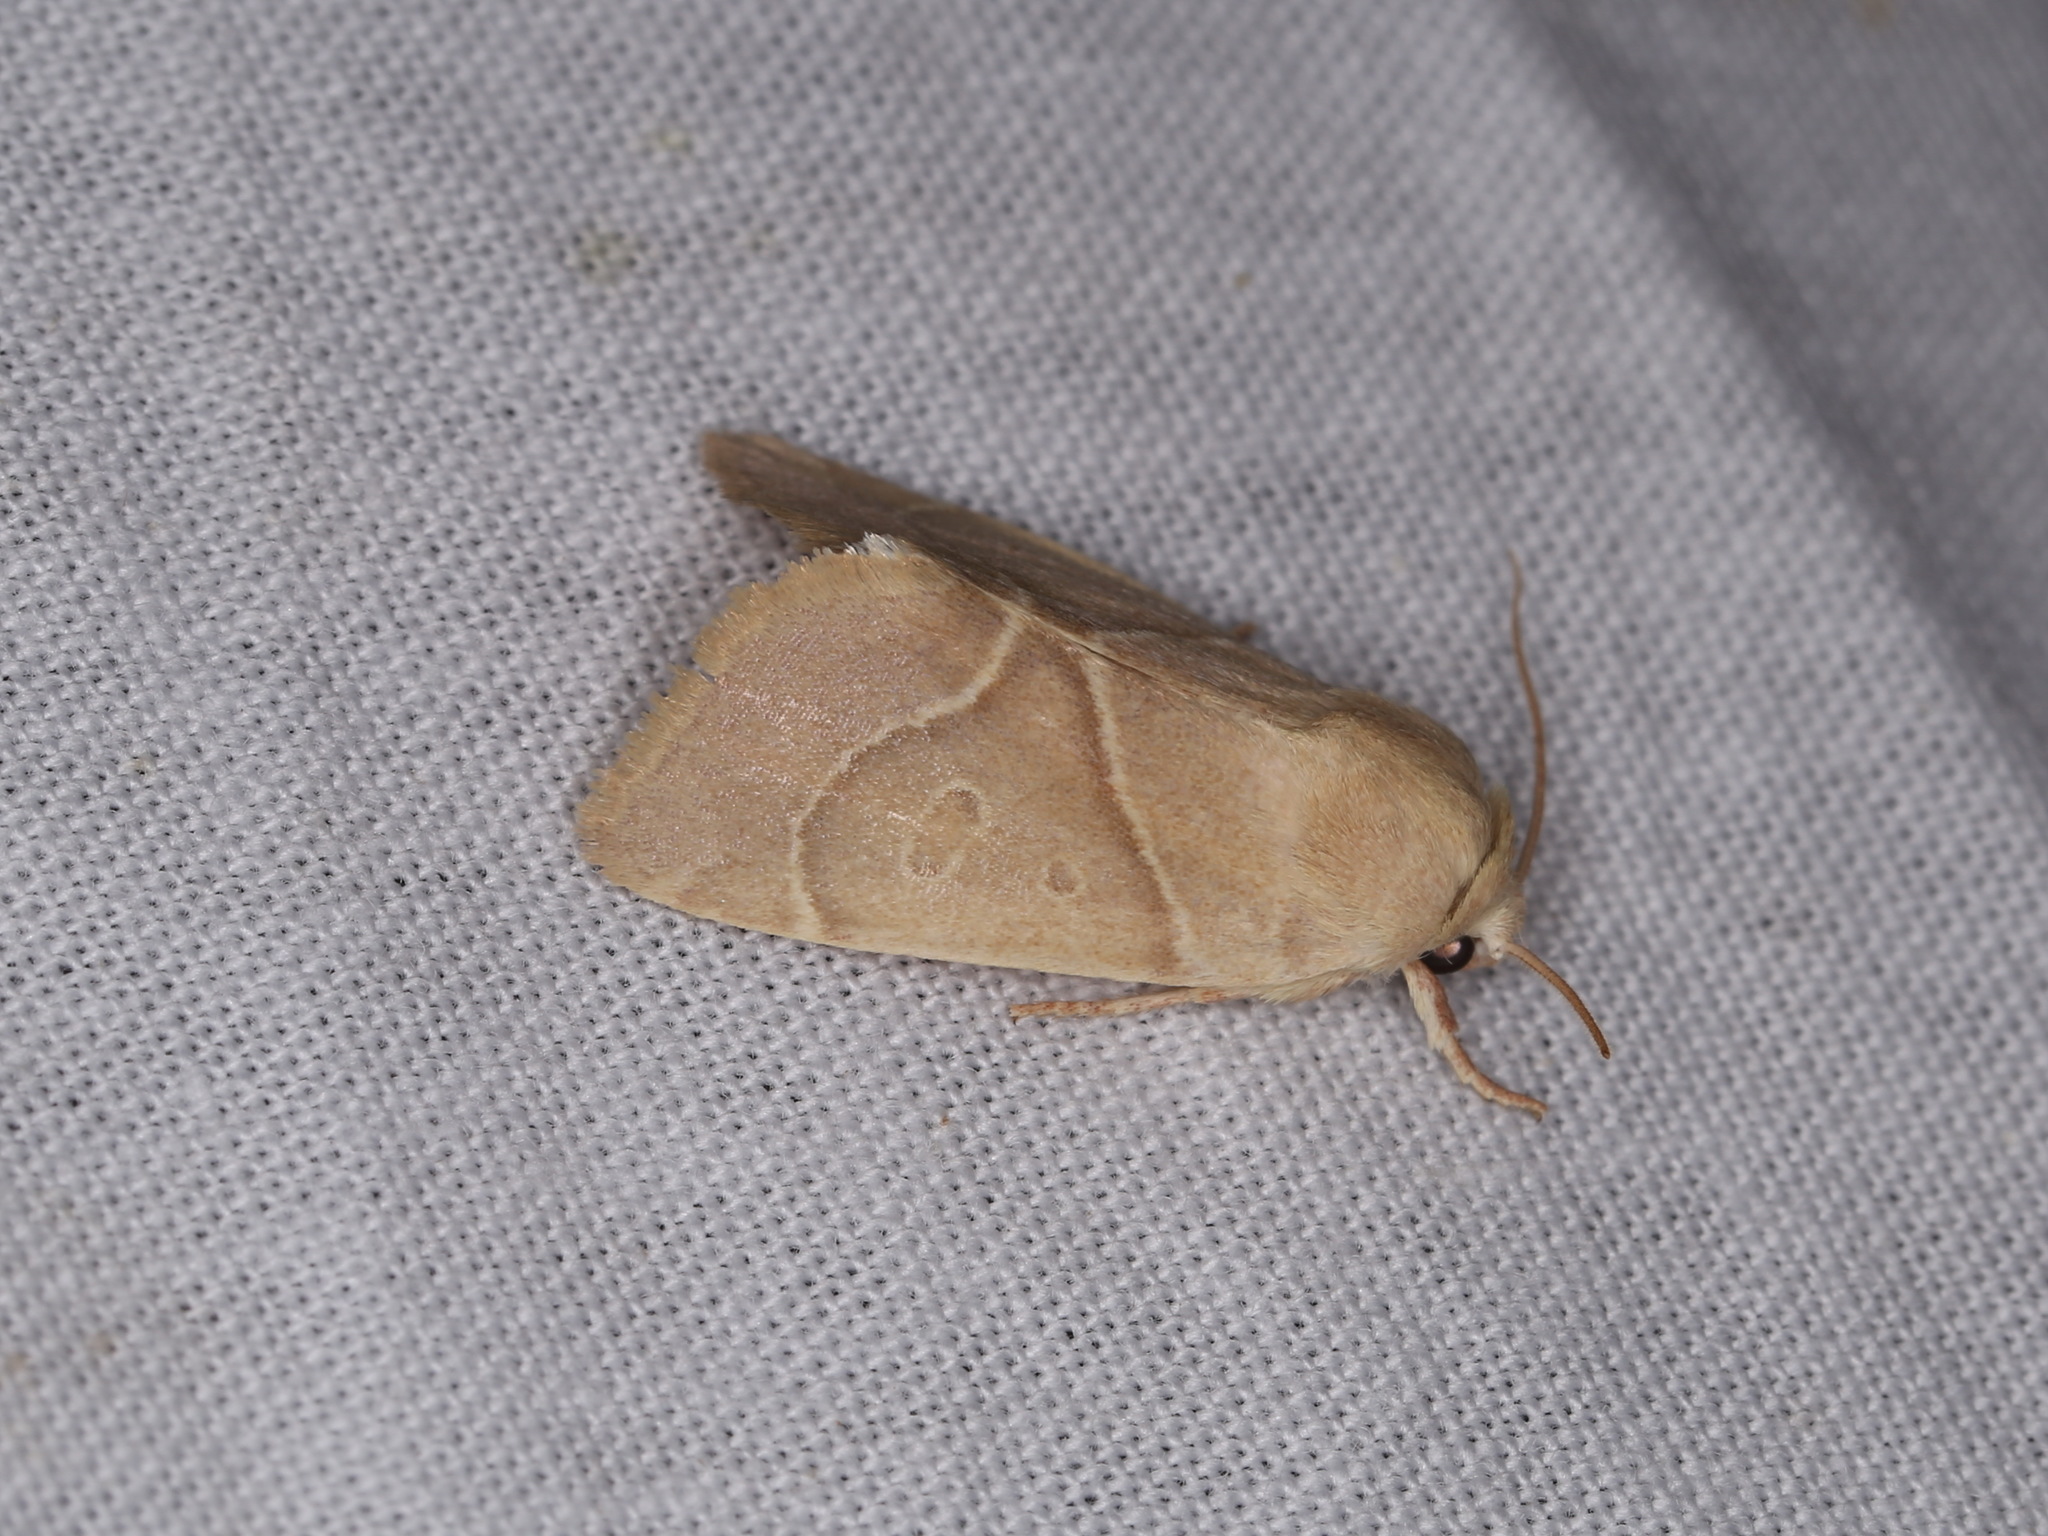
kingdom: Animalia
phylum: Arthropoda
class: Insecta
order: Lepidoptera
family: Noctuidae
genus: Cosmia
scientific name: Cosmia calami
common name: American dun-bar moth
